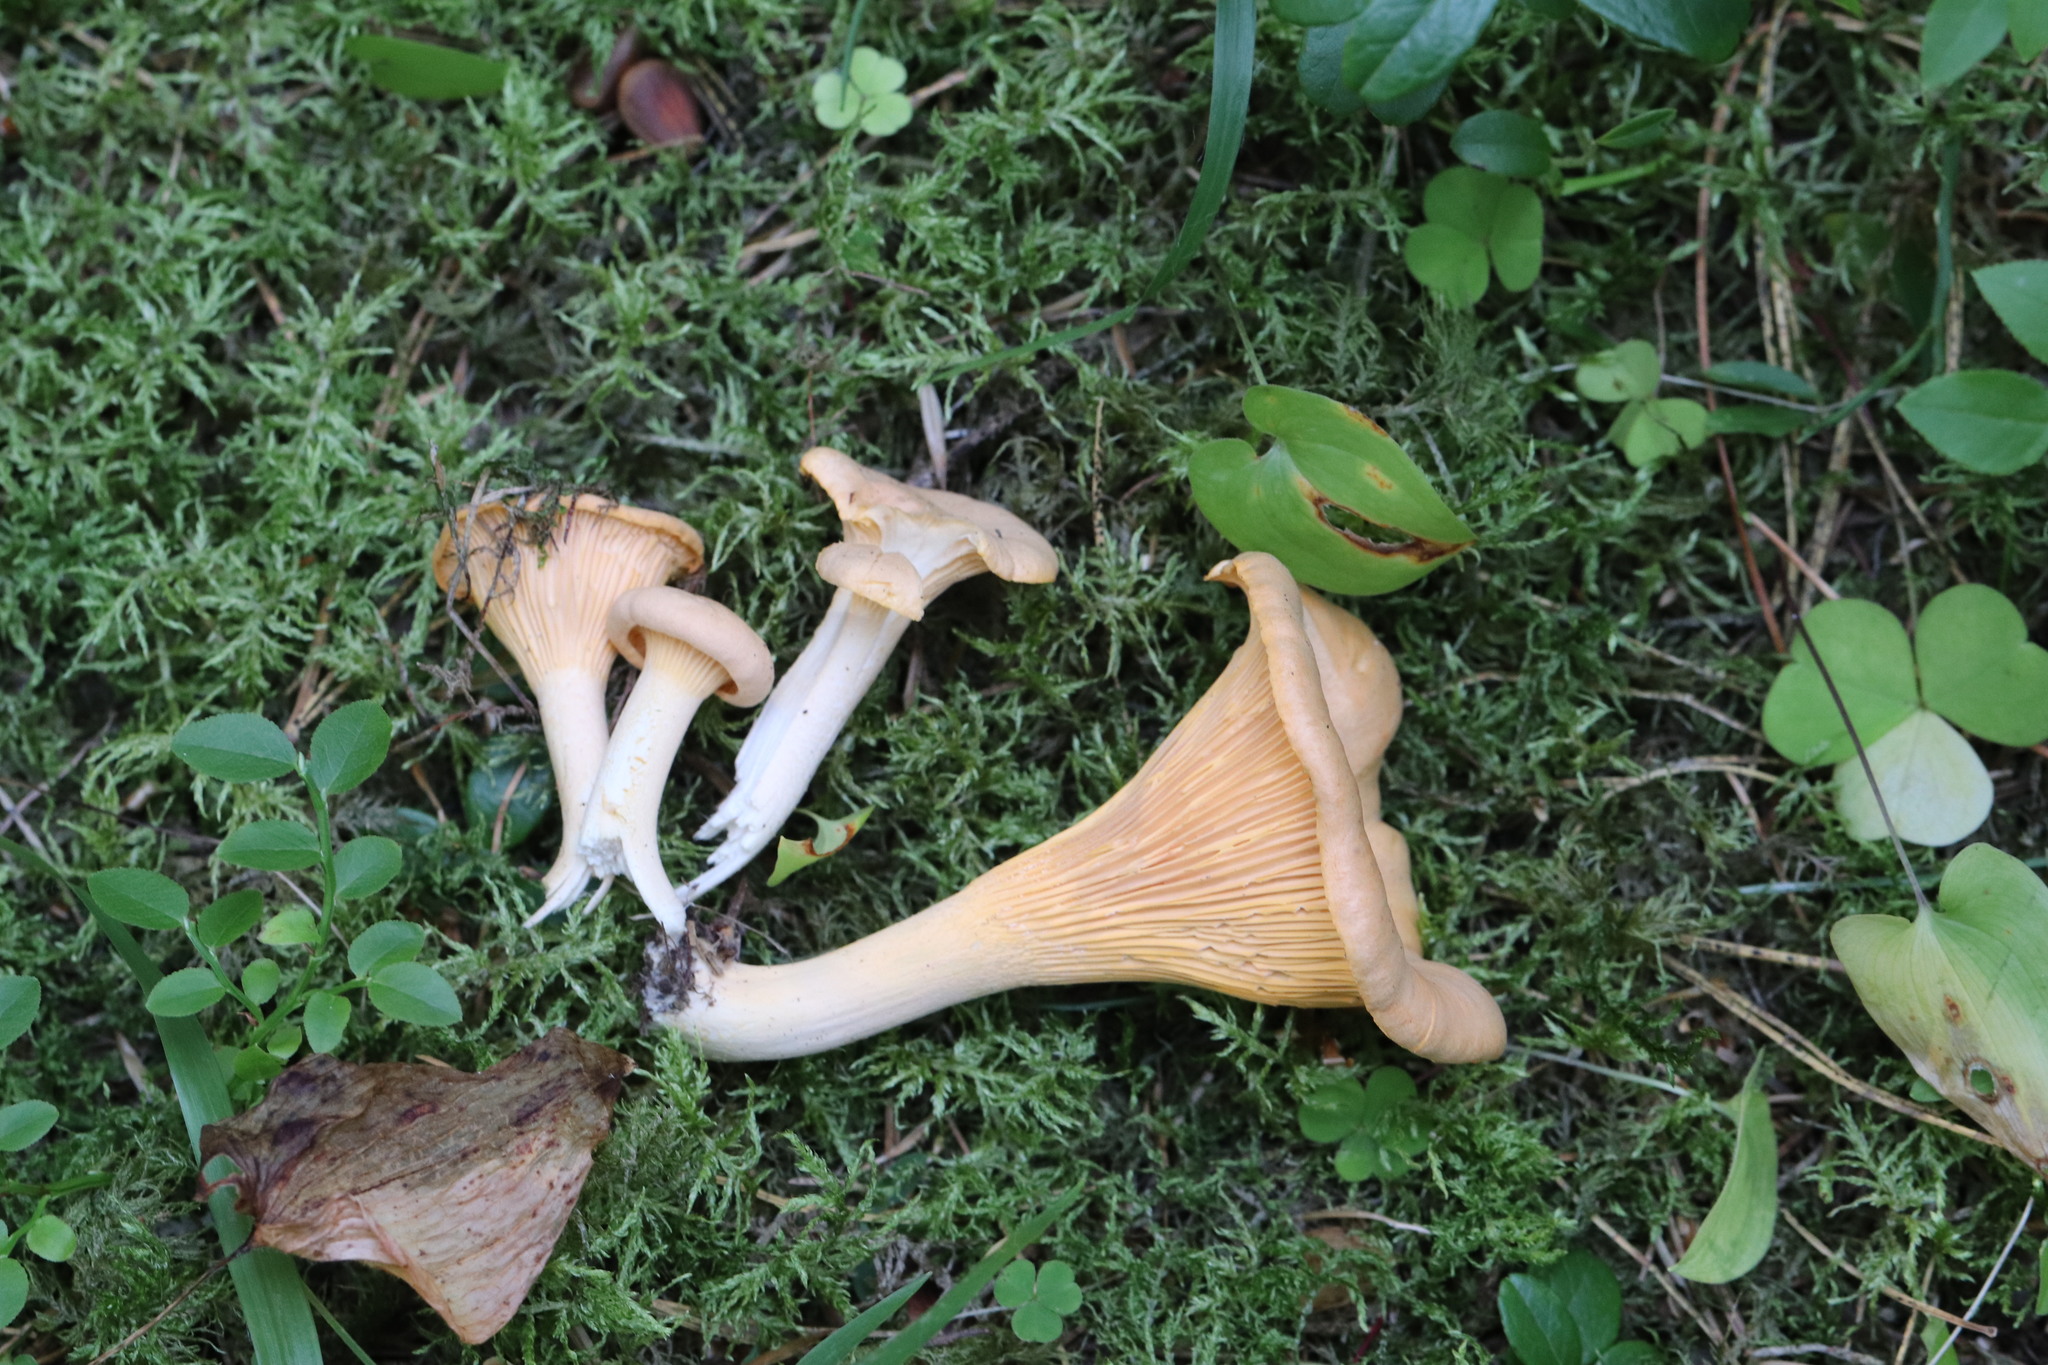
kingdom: Fungi
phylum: Basidiomycota
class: Agaricomycetes
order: Cantharellales
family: Hydnaceae
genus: Cantharellus
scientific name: Cantharellus cibarius
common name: Chanterelle
